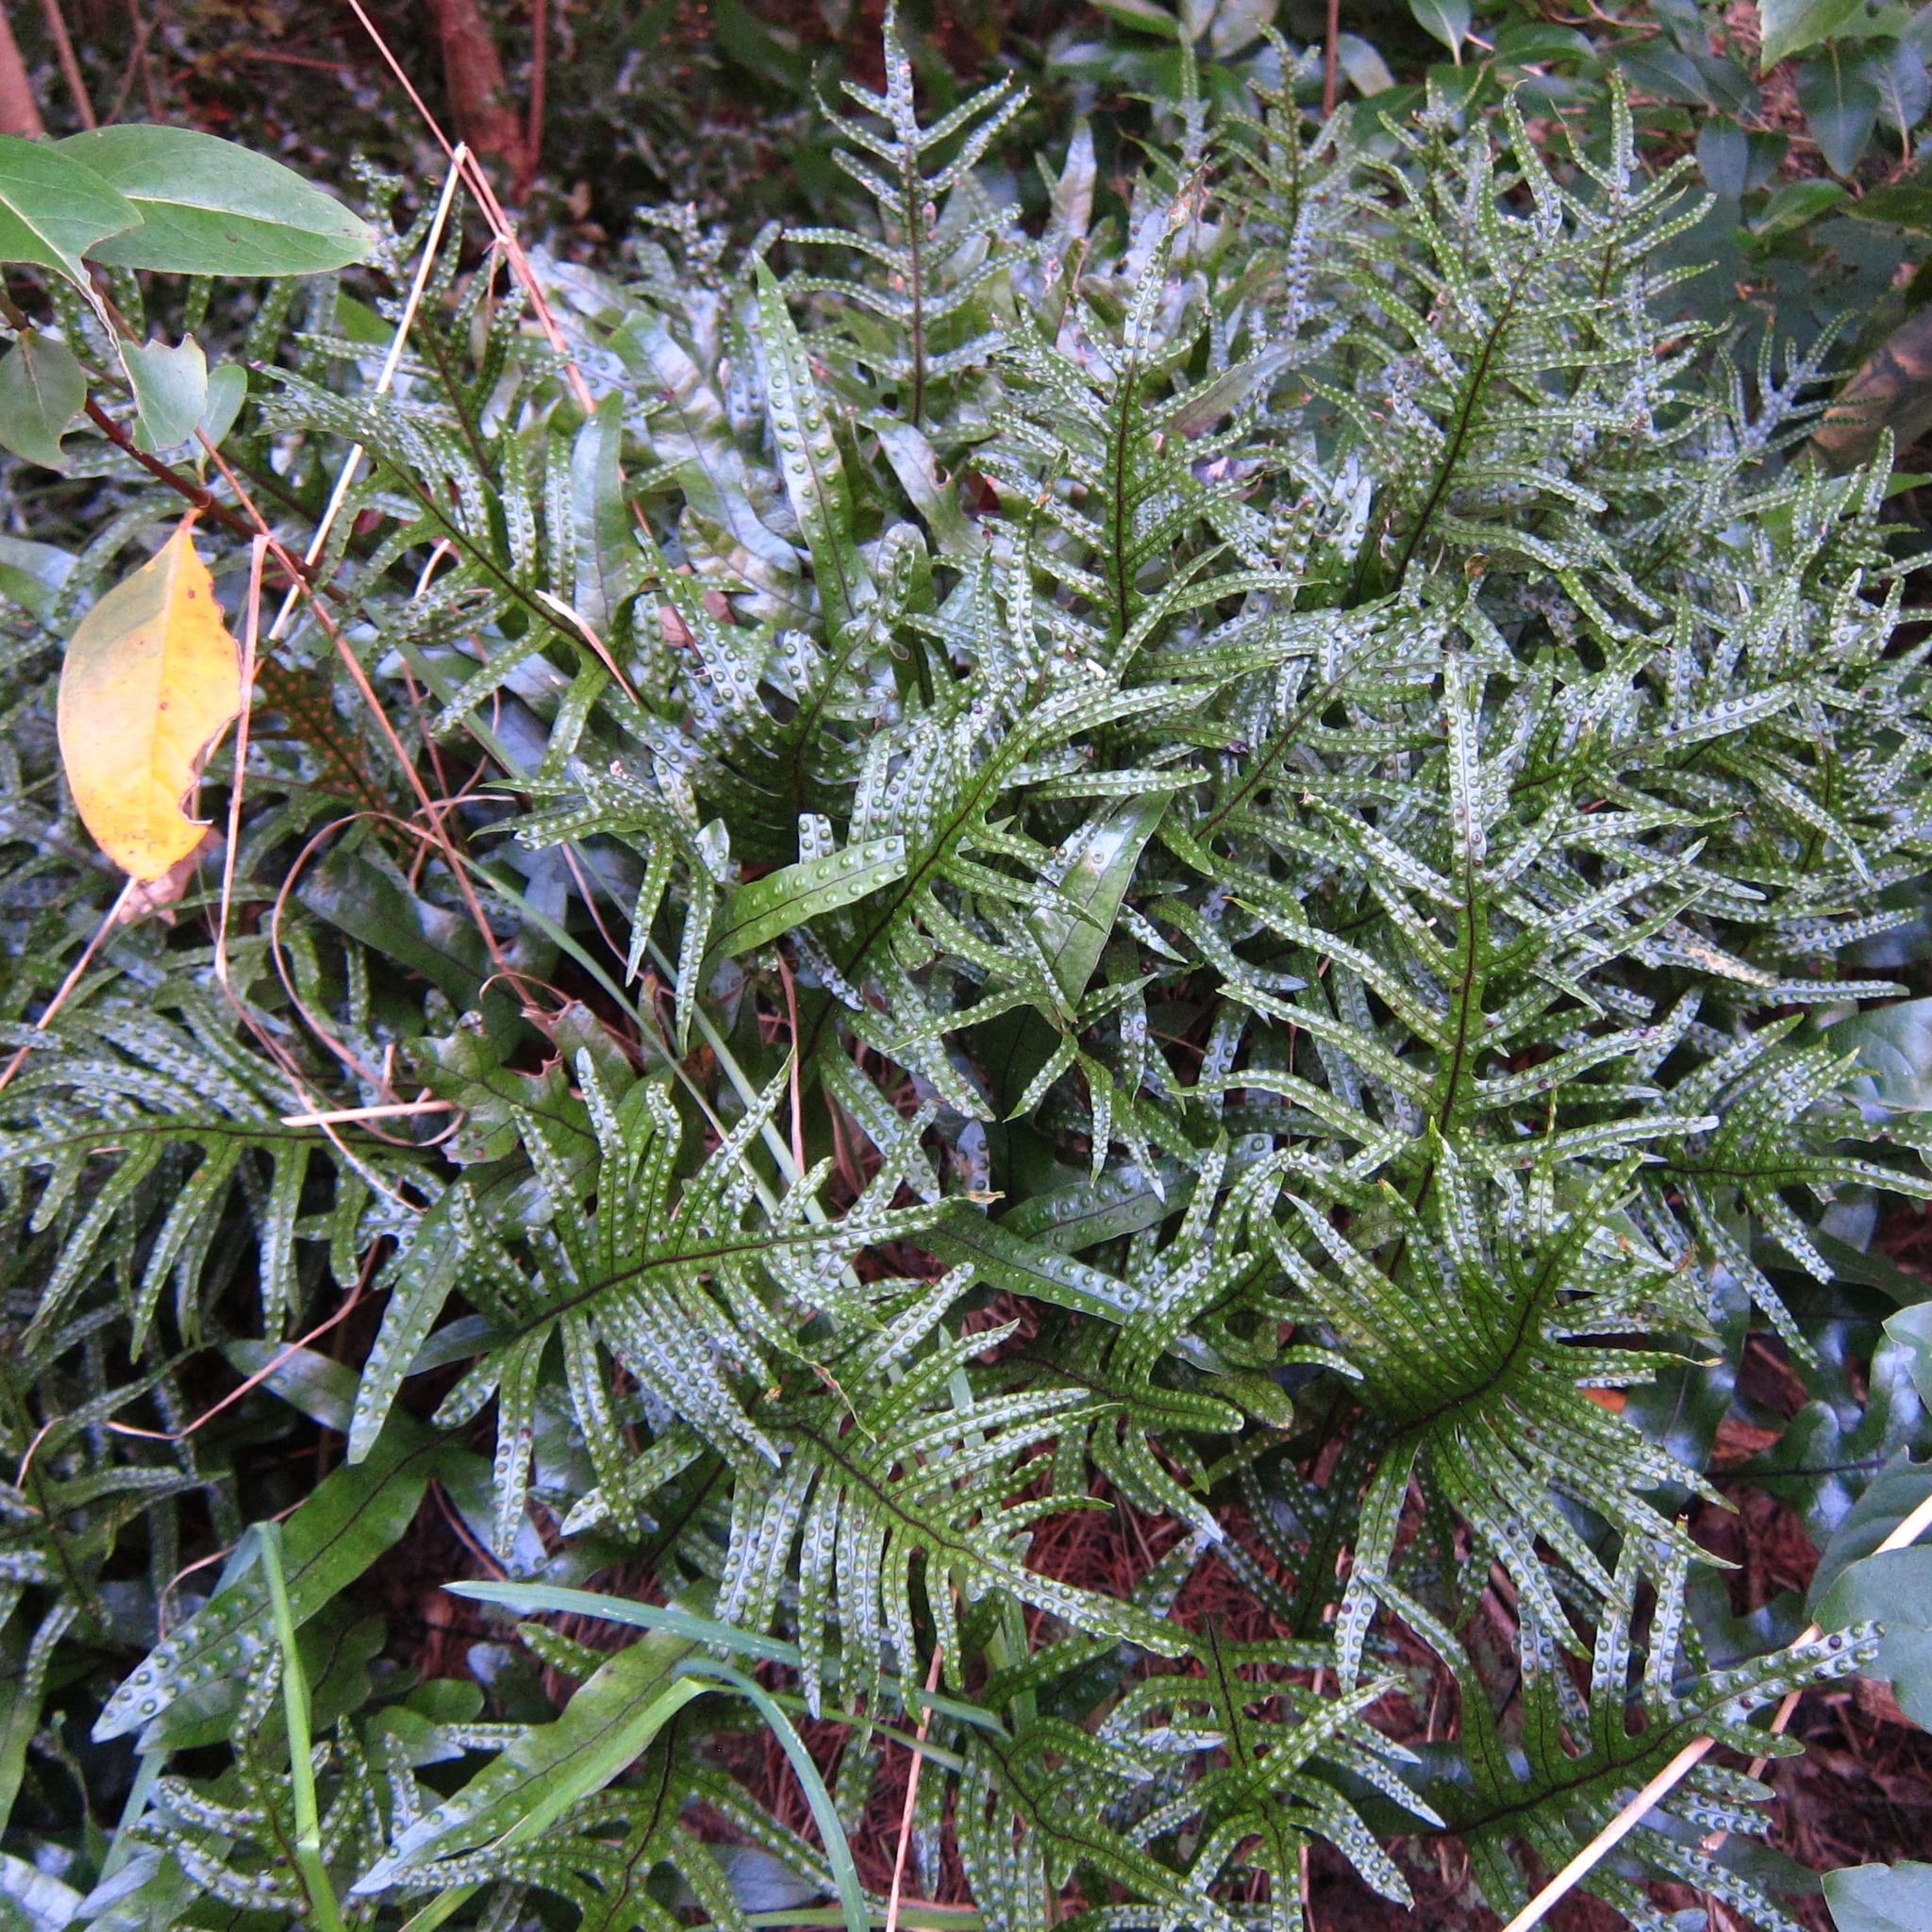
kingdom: Plantae
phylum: Tracheophyta
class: Polypodiopsida
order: Polypodiales
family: Polypodiaceae
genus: Lecanopteris
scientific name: Lecanopteris pustulata
